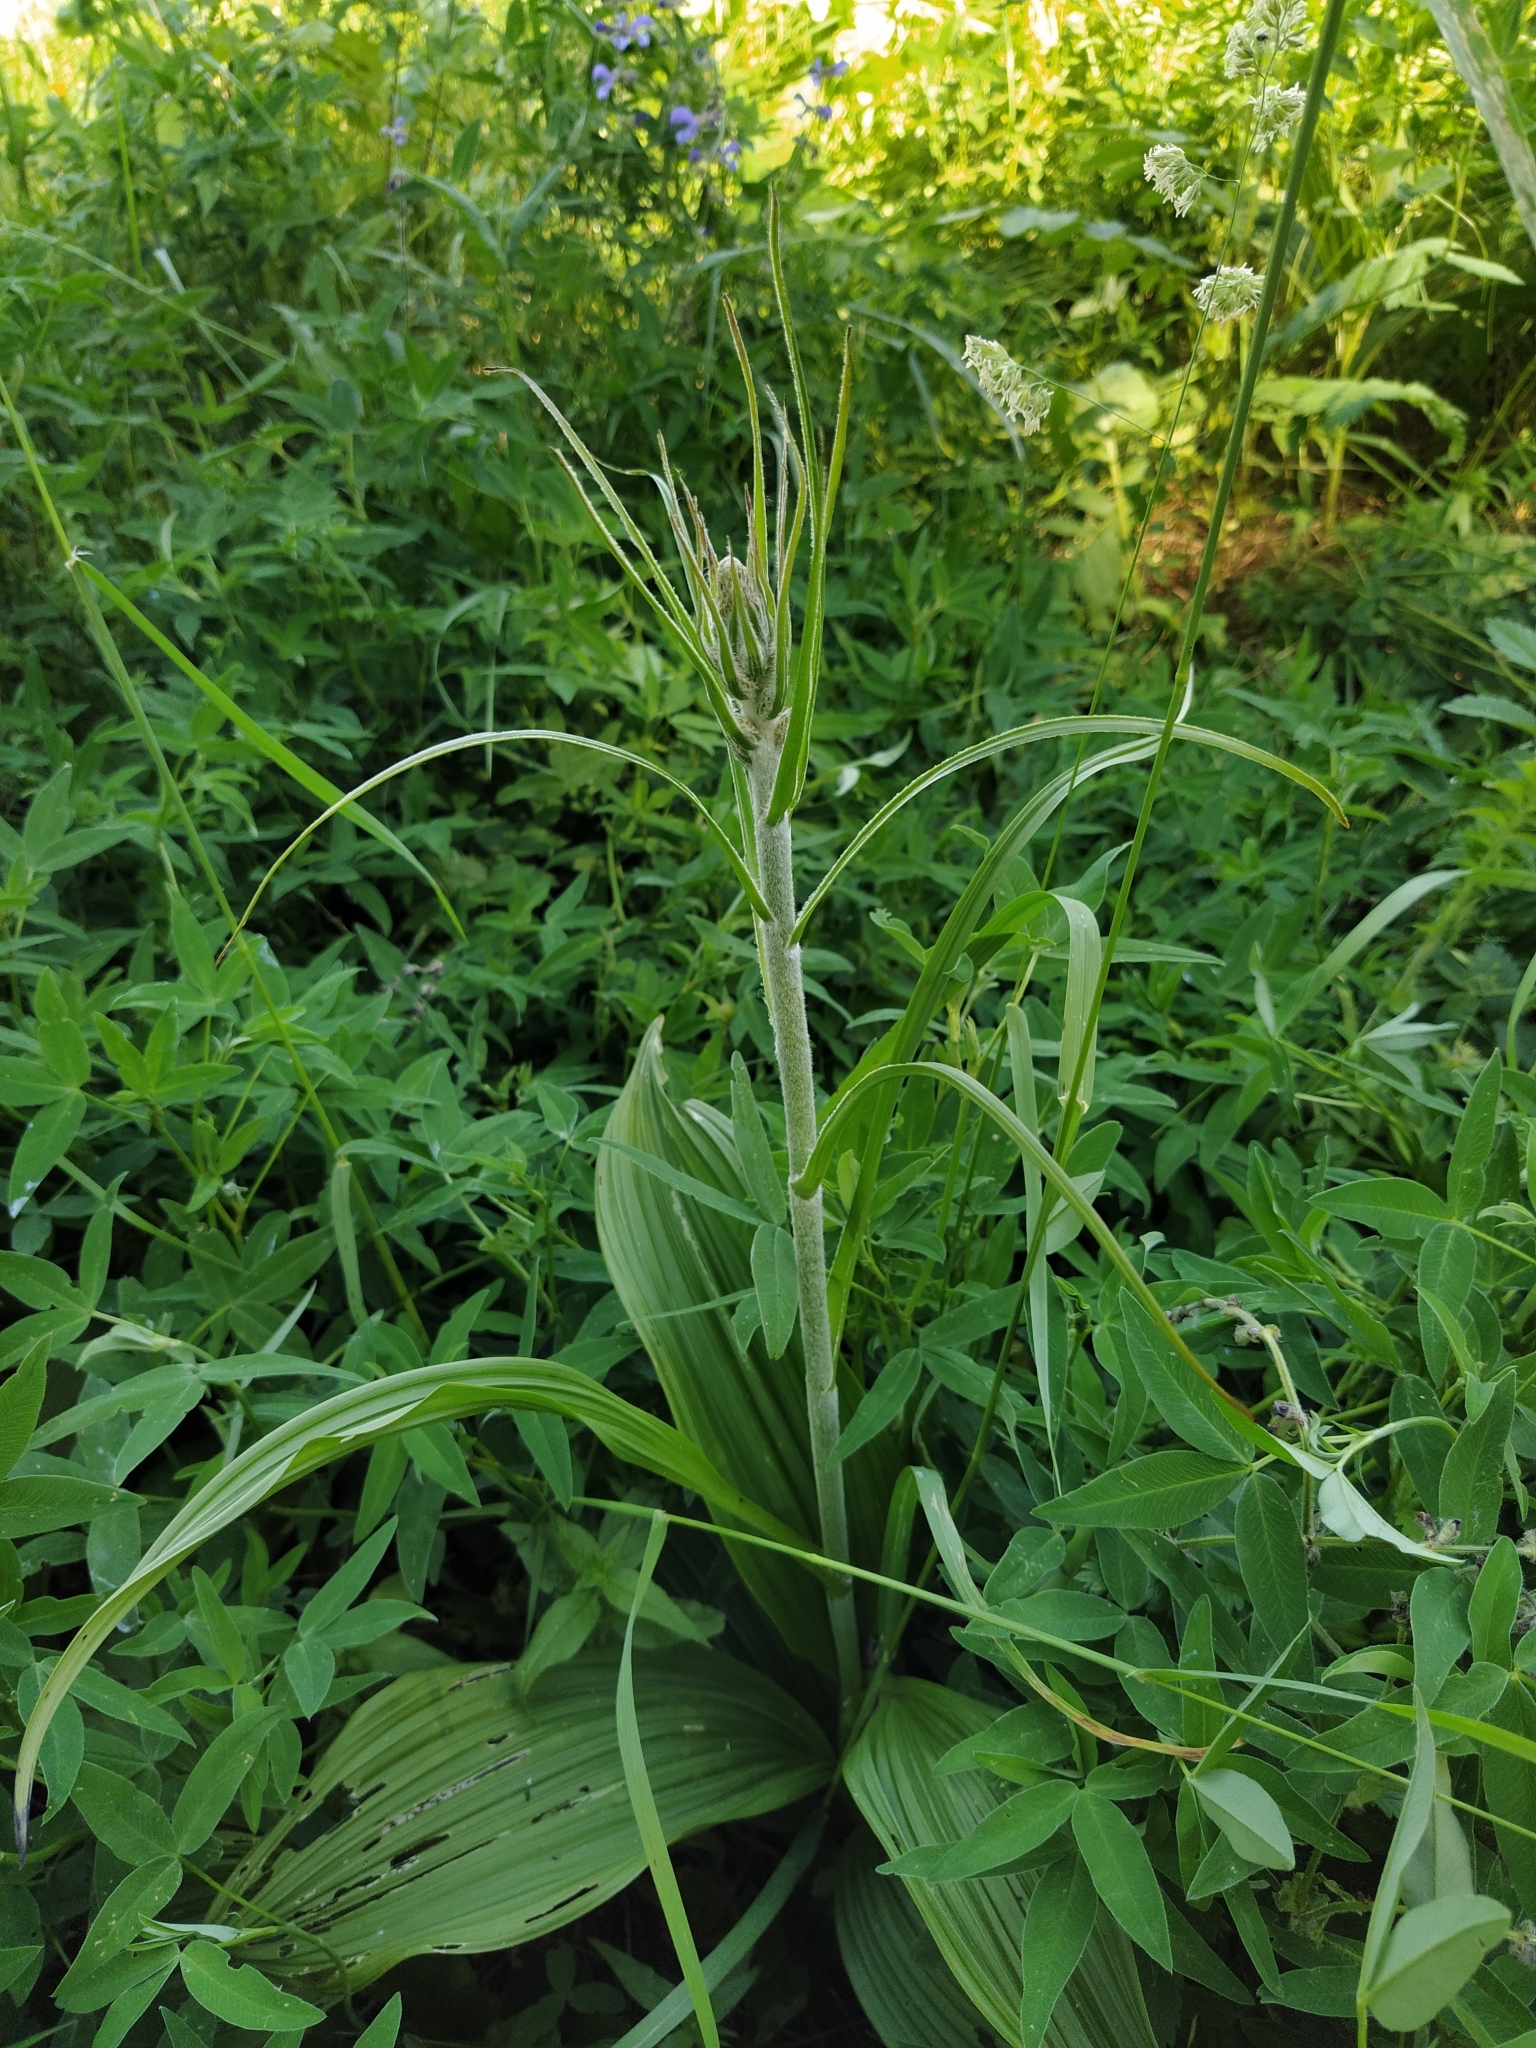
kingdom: Plantae
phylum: Tracheophyta
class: Liliopsida
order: Liliales
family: Melanthiaceae
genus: Veratrum
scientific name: Veratrum nigrum
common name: Black veratrum
